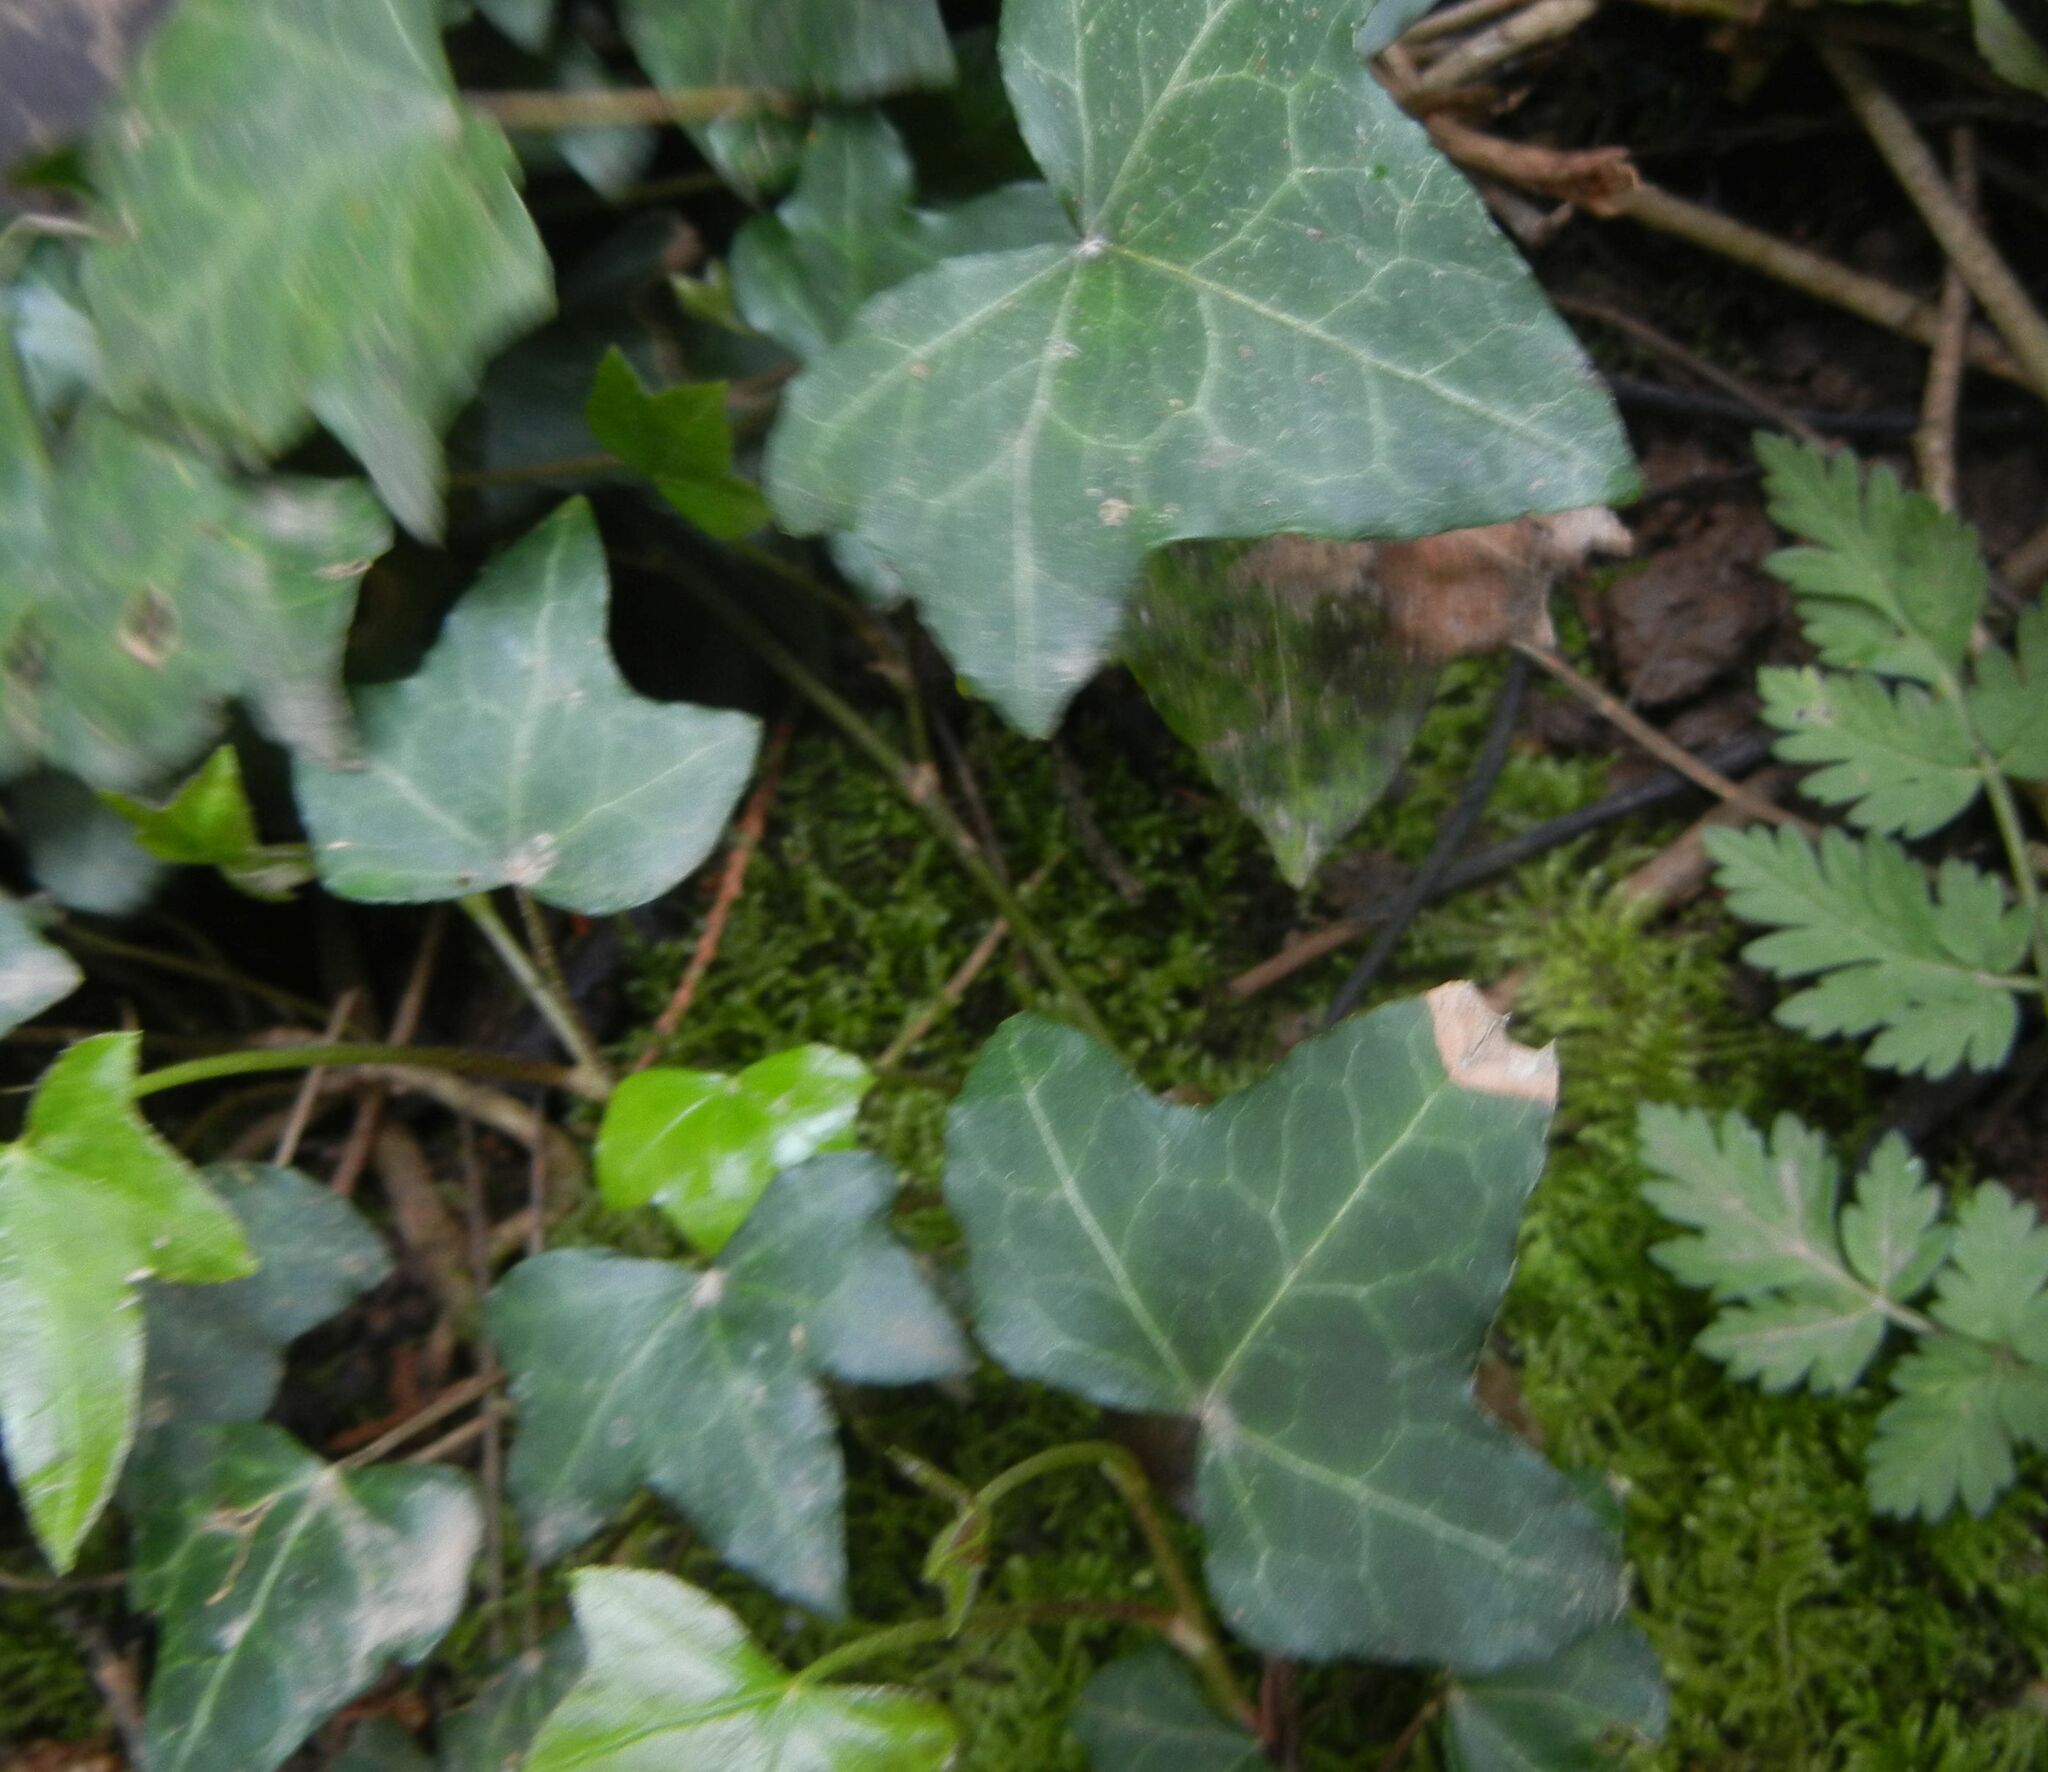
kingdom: Plantae
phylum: Tracheophyta
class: Magnoliopsida
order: Apiales
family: Araliaceae
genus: Hedera
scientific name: Hedera helix
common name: Ivy
